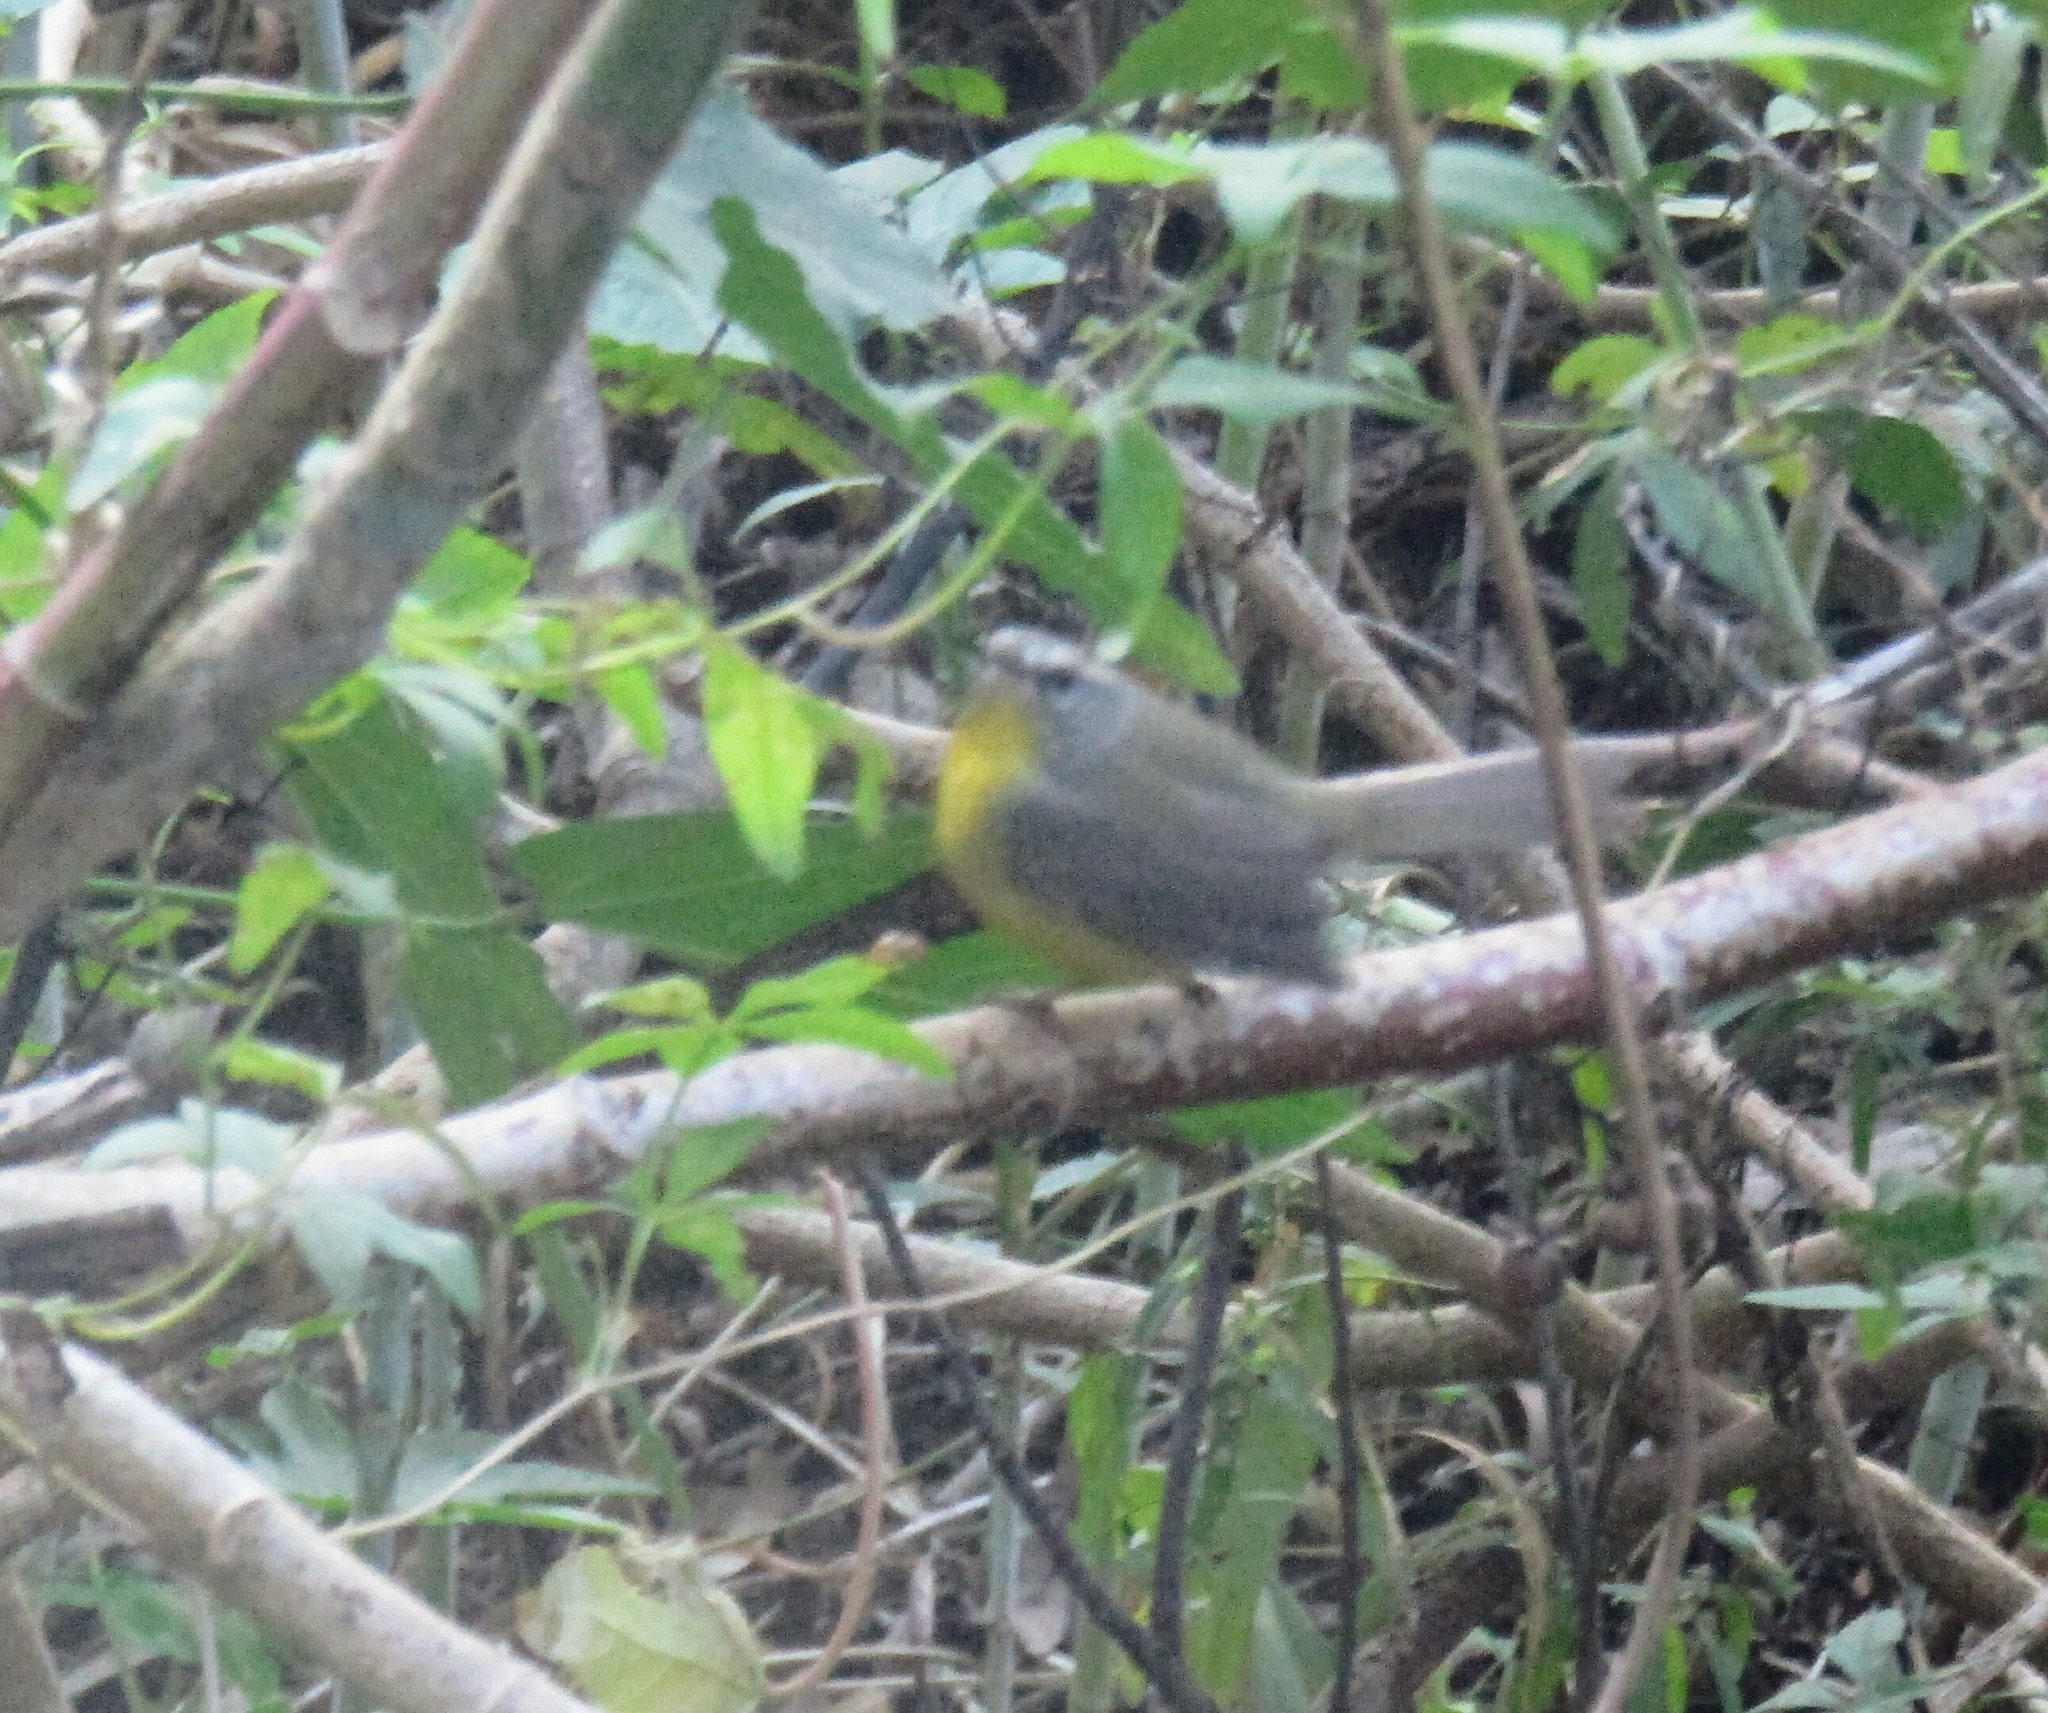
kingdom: Animalia
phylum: Chordata
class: Aves
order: Passeriformes
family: Parulidae
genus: Basileuterus
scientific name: Basileuterus culicivorus
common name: Golden-crowned warbler
